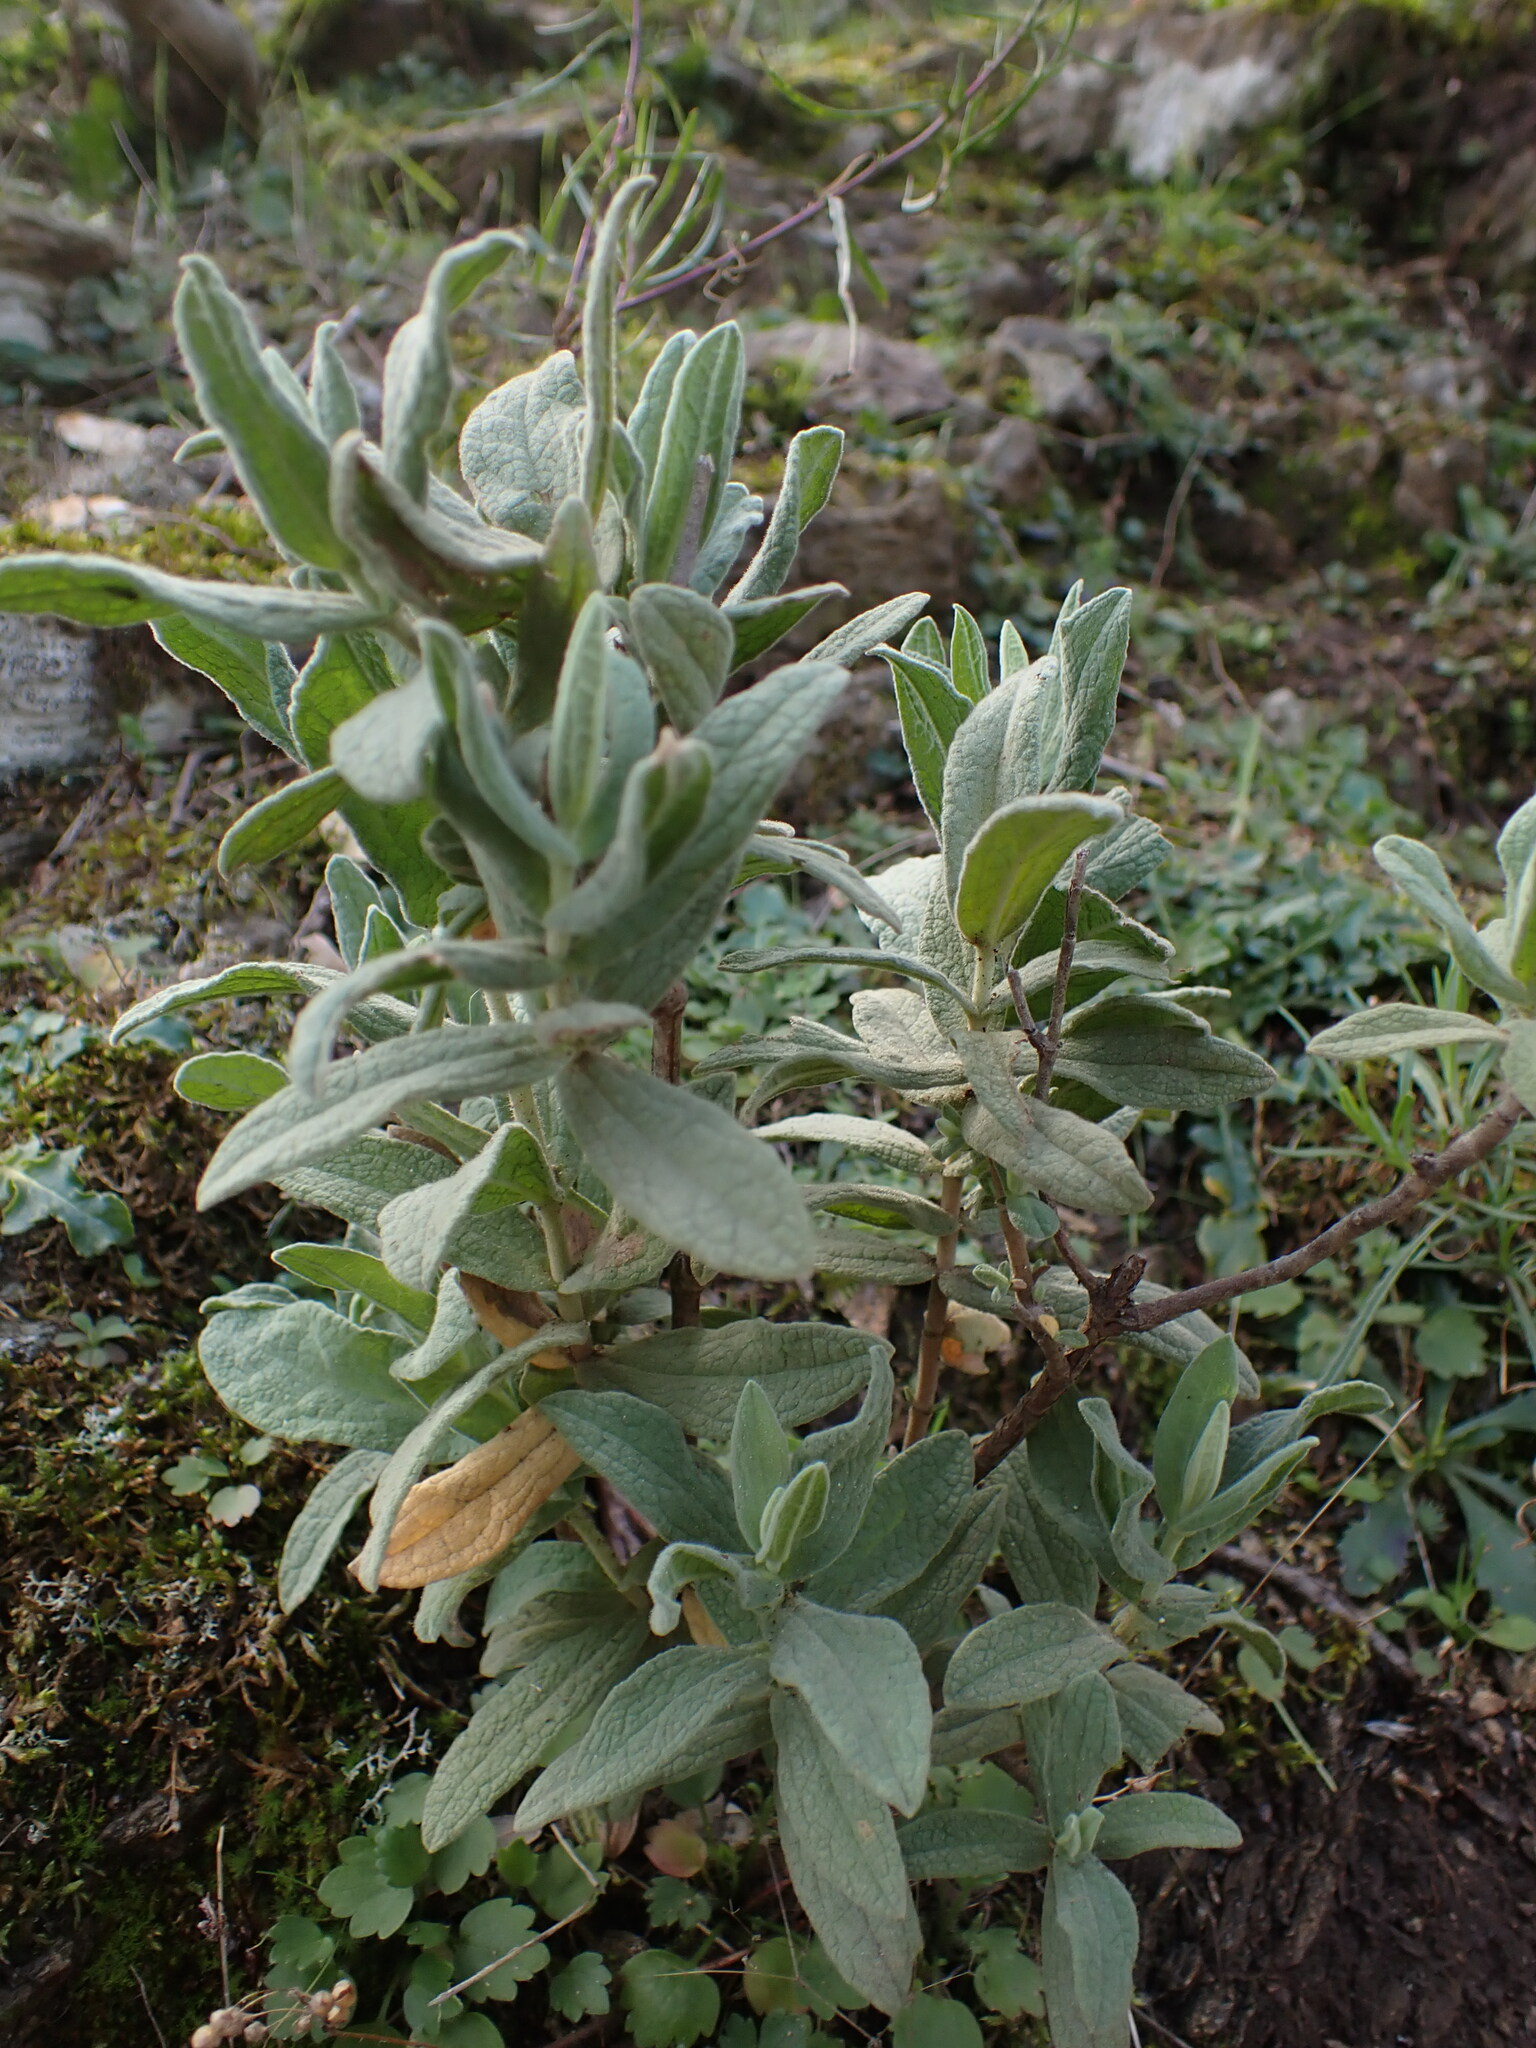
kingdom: Plantae
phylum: Tracheophyta
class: Magnoliopsida
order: Malvales
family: Cistaceae
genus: Cistus
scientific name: Cistus albidus
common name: White-leaf rock-rose
